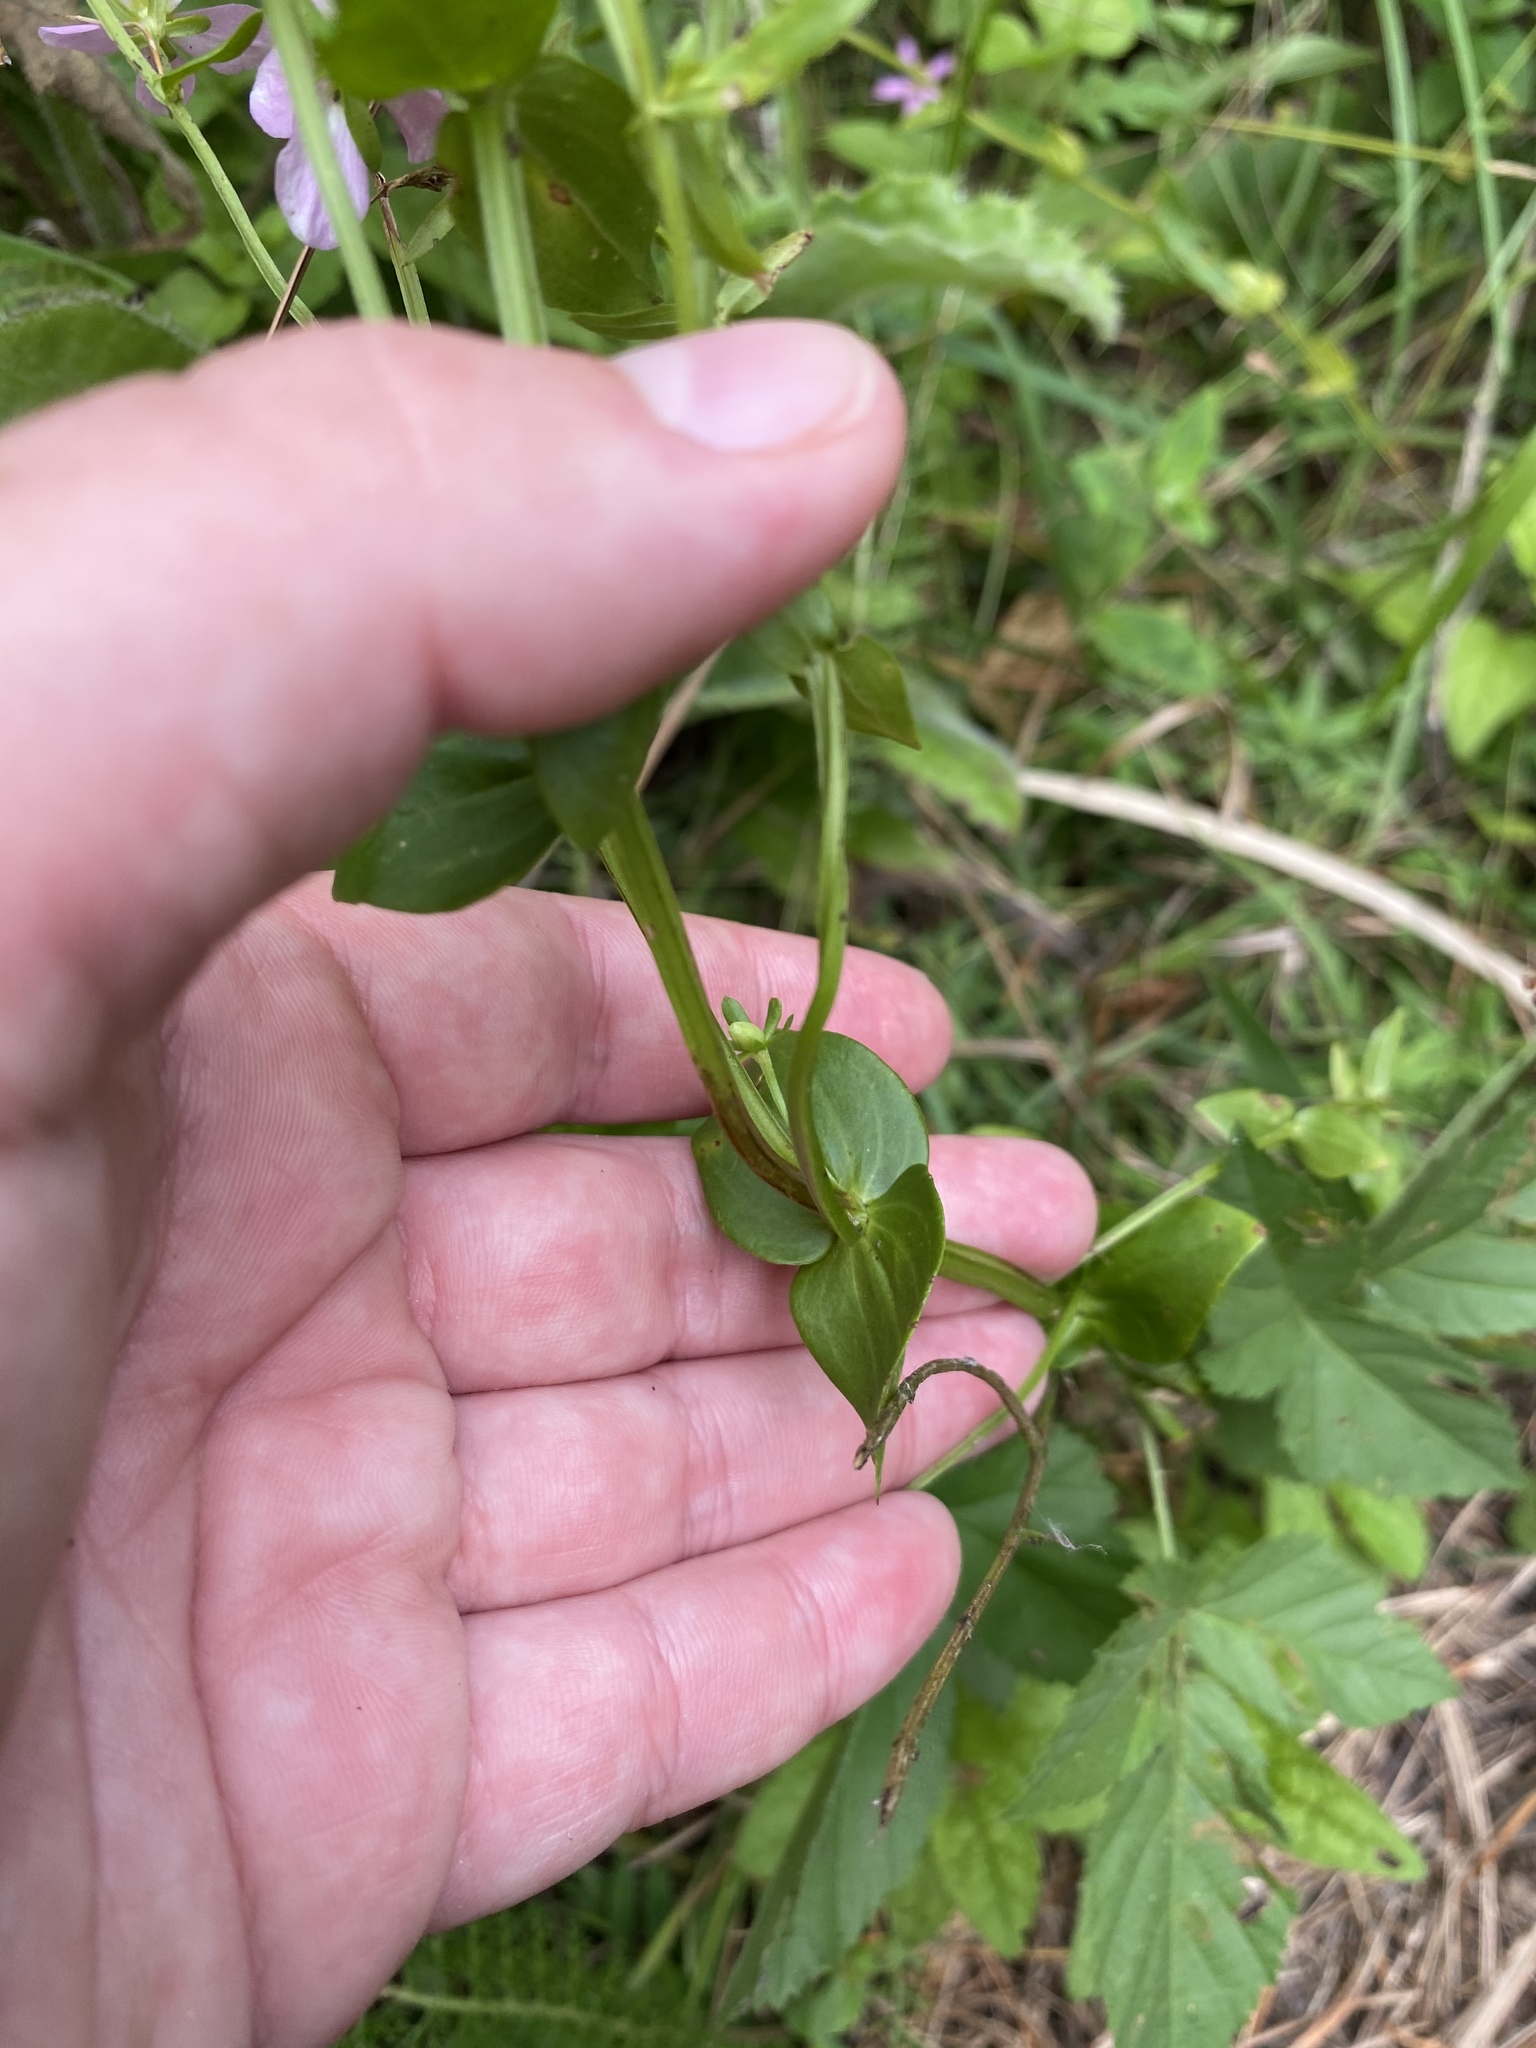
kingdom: Plantae
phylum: Tracheophyta
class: Magnoliopsida
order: Gentianales
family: Gentianaceae
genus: Sabatia
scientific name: Sabatia angularis
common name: Rose-pink
